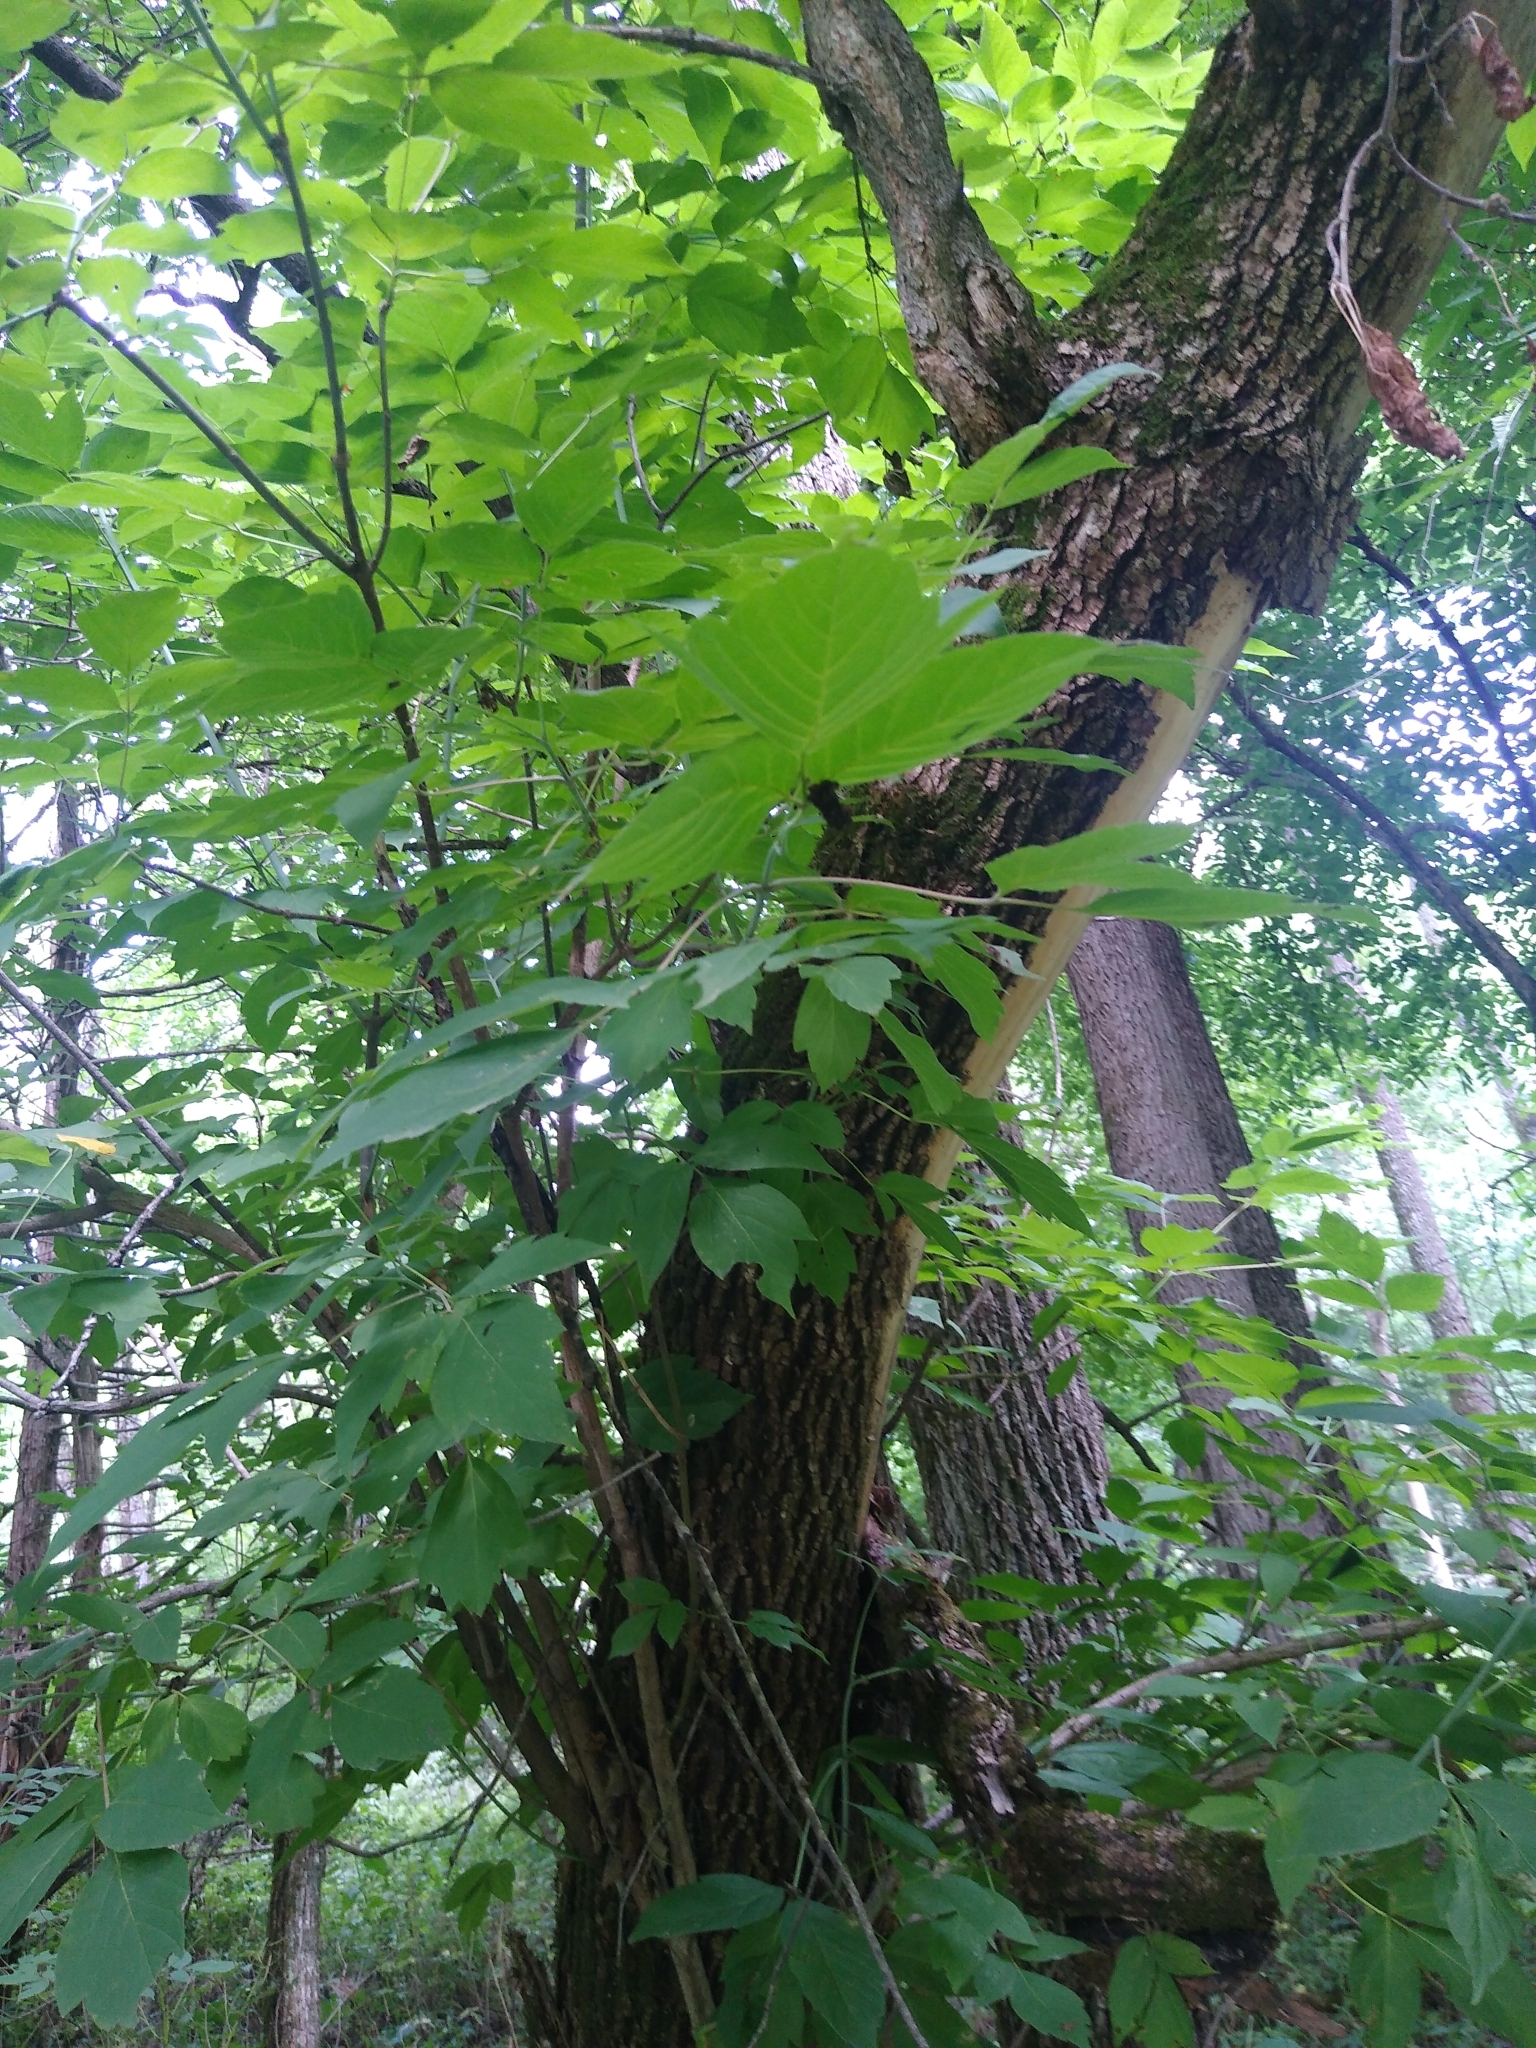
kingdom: Plantae
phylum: Tracheophyta
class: Magnoliopsida
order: Sapindales
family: Sapindaceae
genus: Acer
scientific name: Acer negundo
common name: Ashleaf maple
